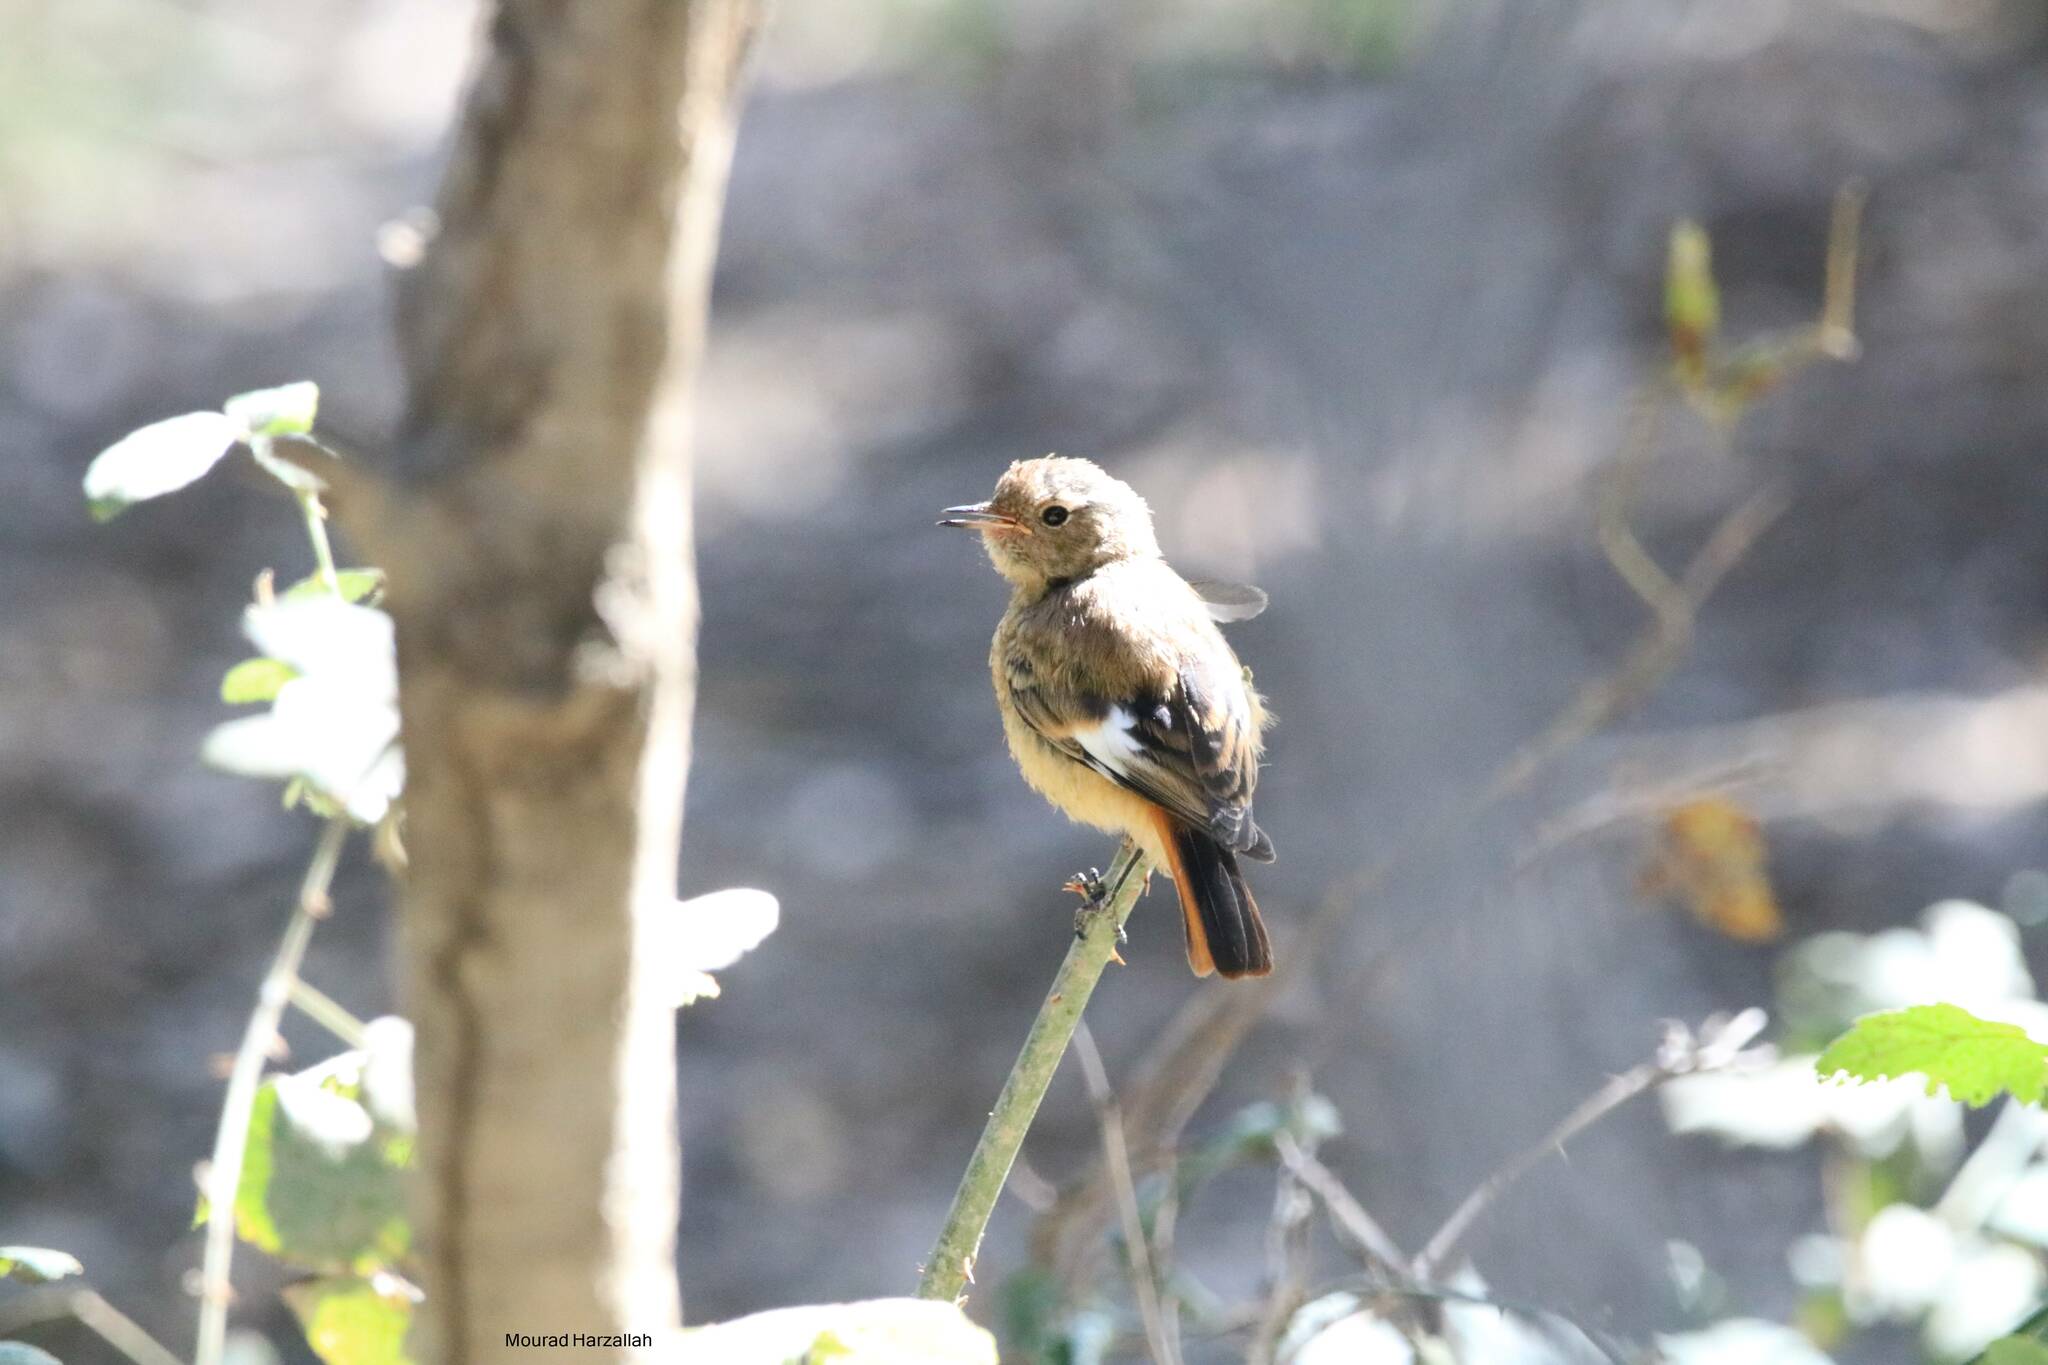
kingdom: Animalia
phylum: Chordata
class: Aves
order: Passeriformes
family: Muscicapidae
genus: Phoenicurus
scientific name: Phoenicurus moussieri
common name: Moussier's redstart
